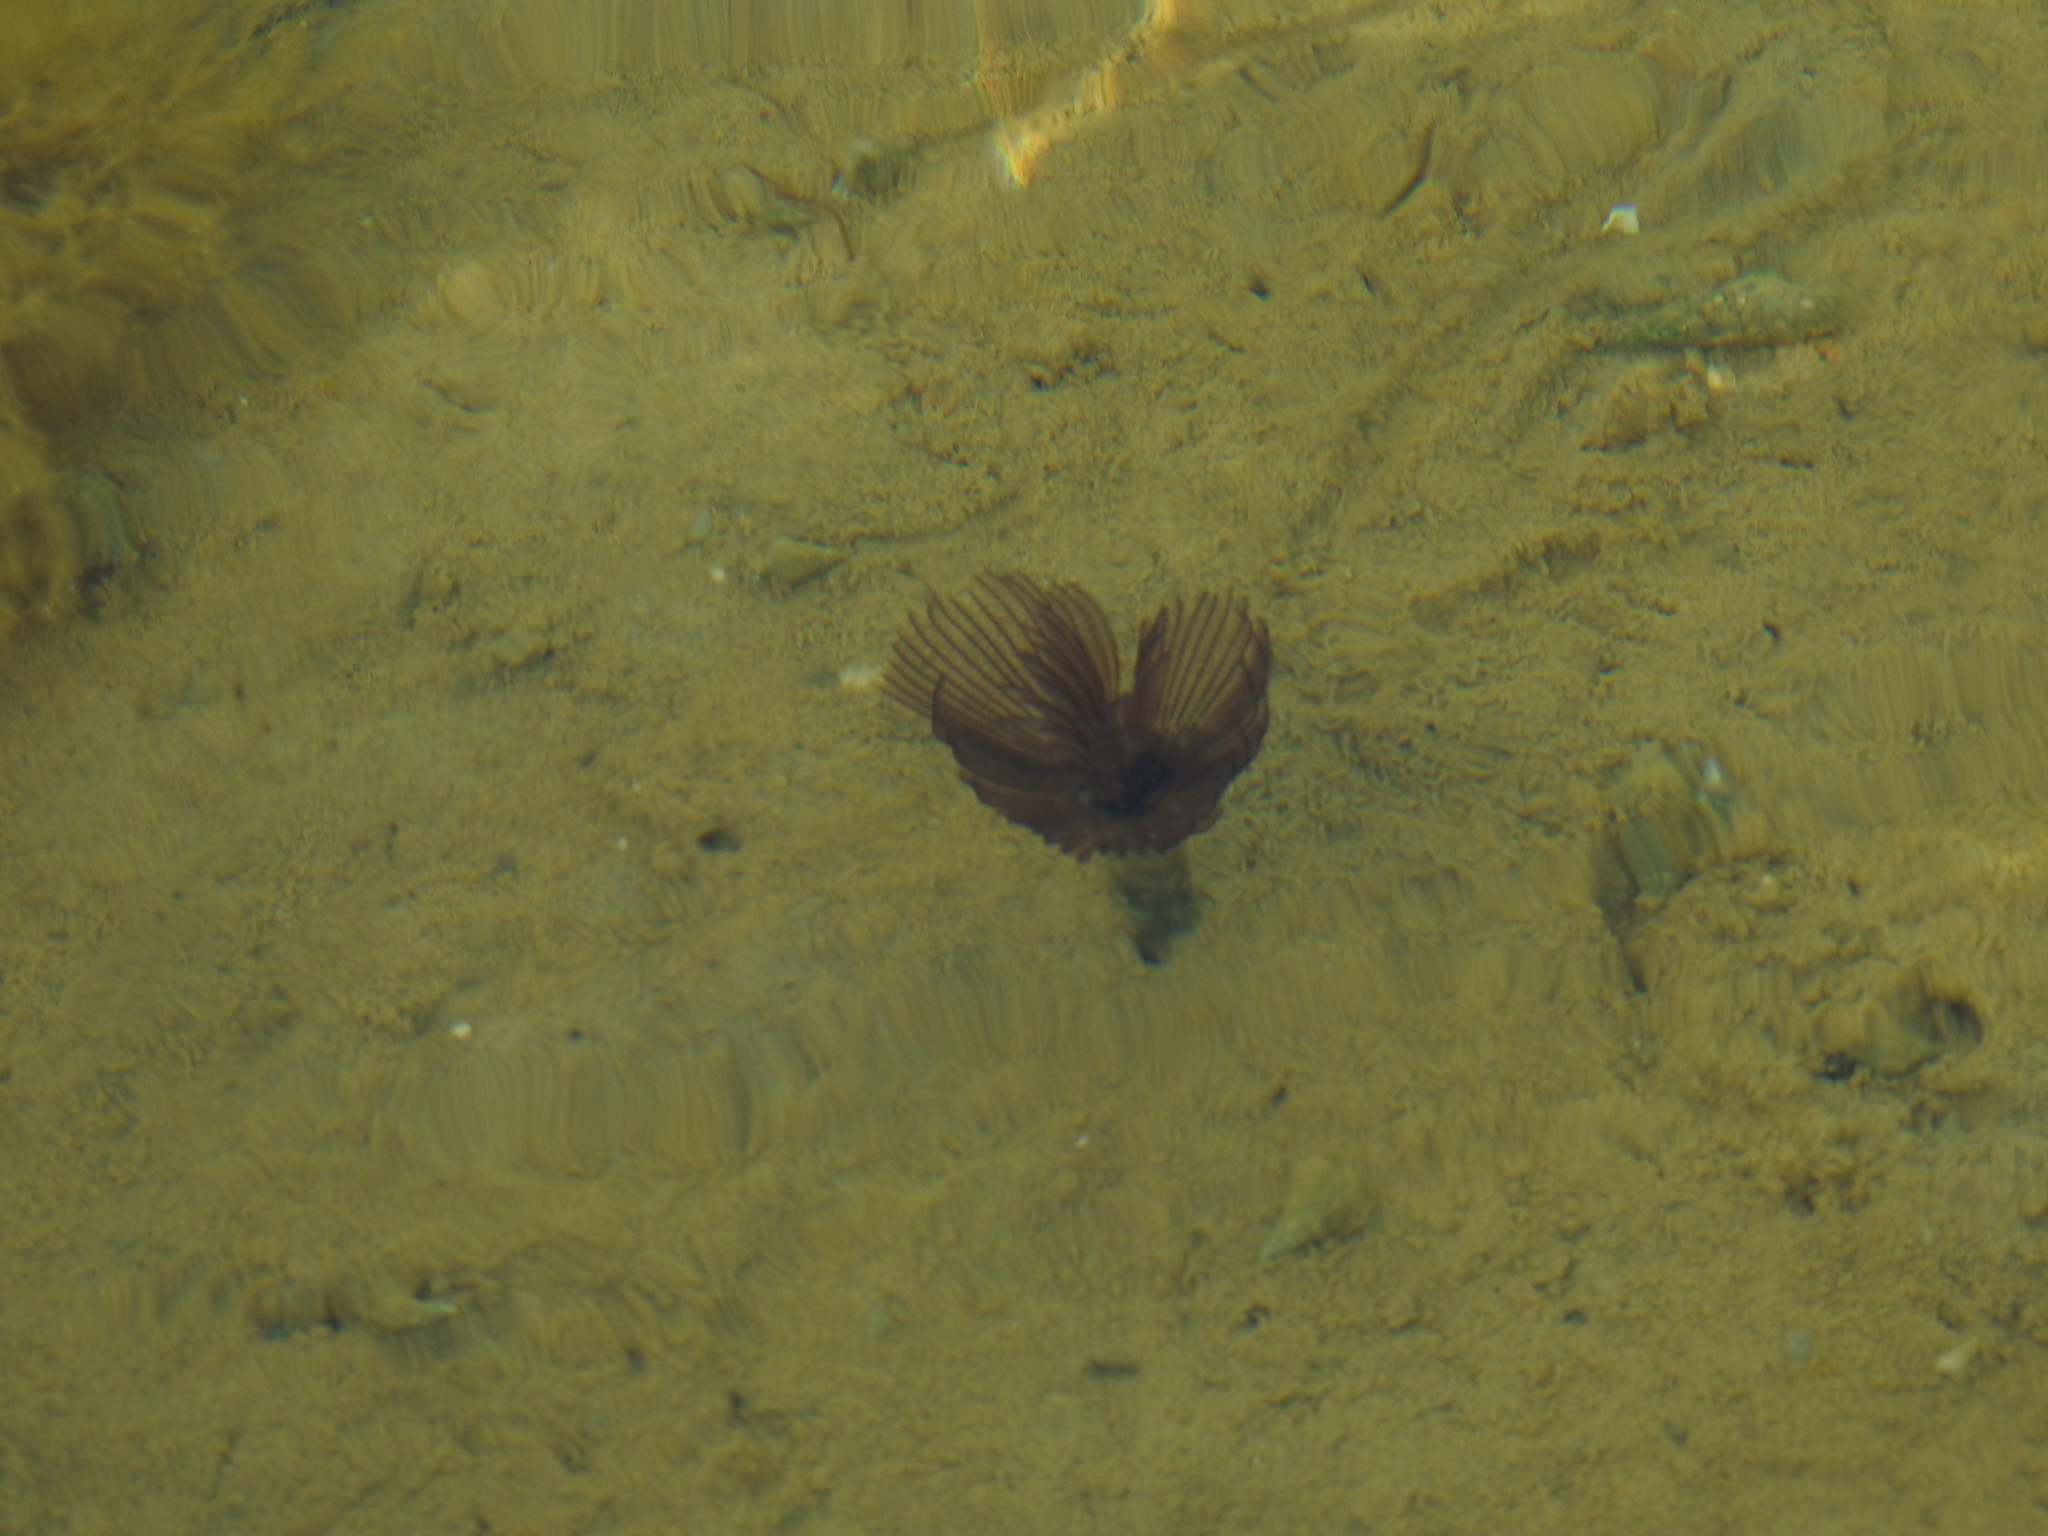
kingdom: Animalia
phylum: Annelida
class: Polychaeta
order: Sabellida
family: Sabellidae
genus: Branchiomma
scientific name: Branchiomma luctuosum
